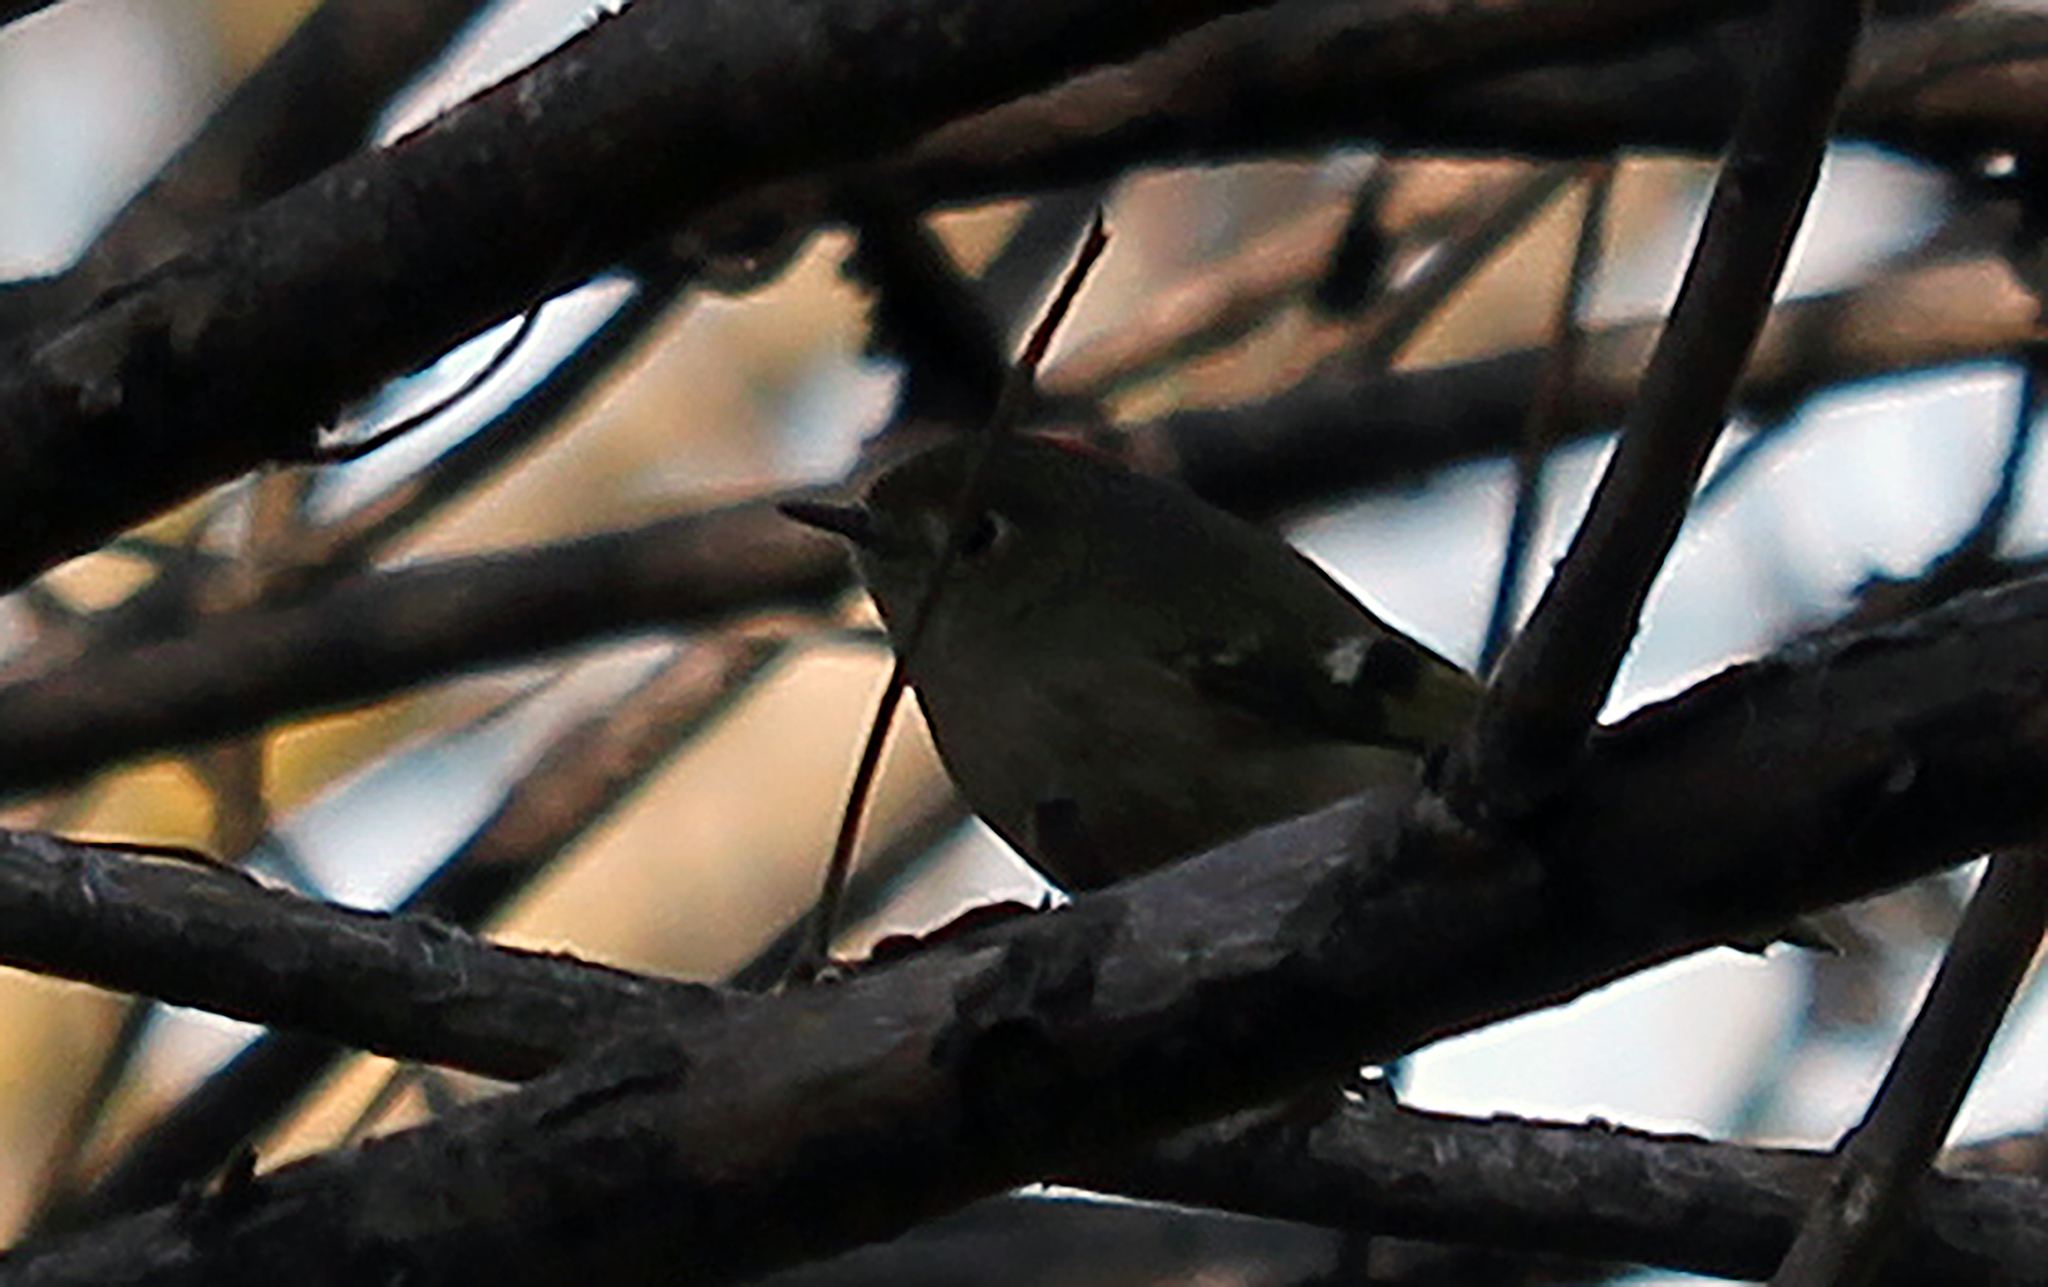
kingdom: Animalia
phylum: Chordata
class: Aves
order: Passeriformes
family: Regulidae
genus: Regulus
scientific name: Regulus calendula
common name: Ruby-crowned kinglet
